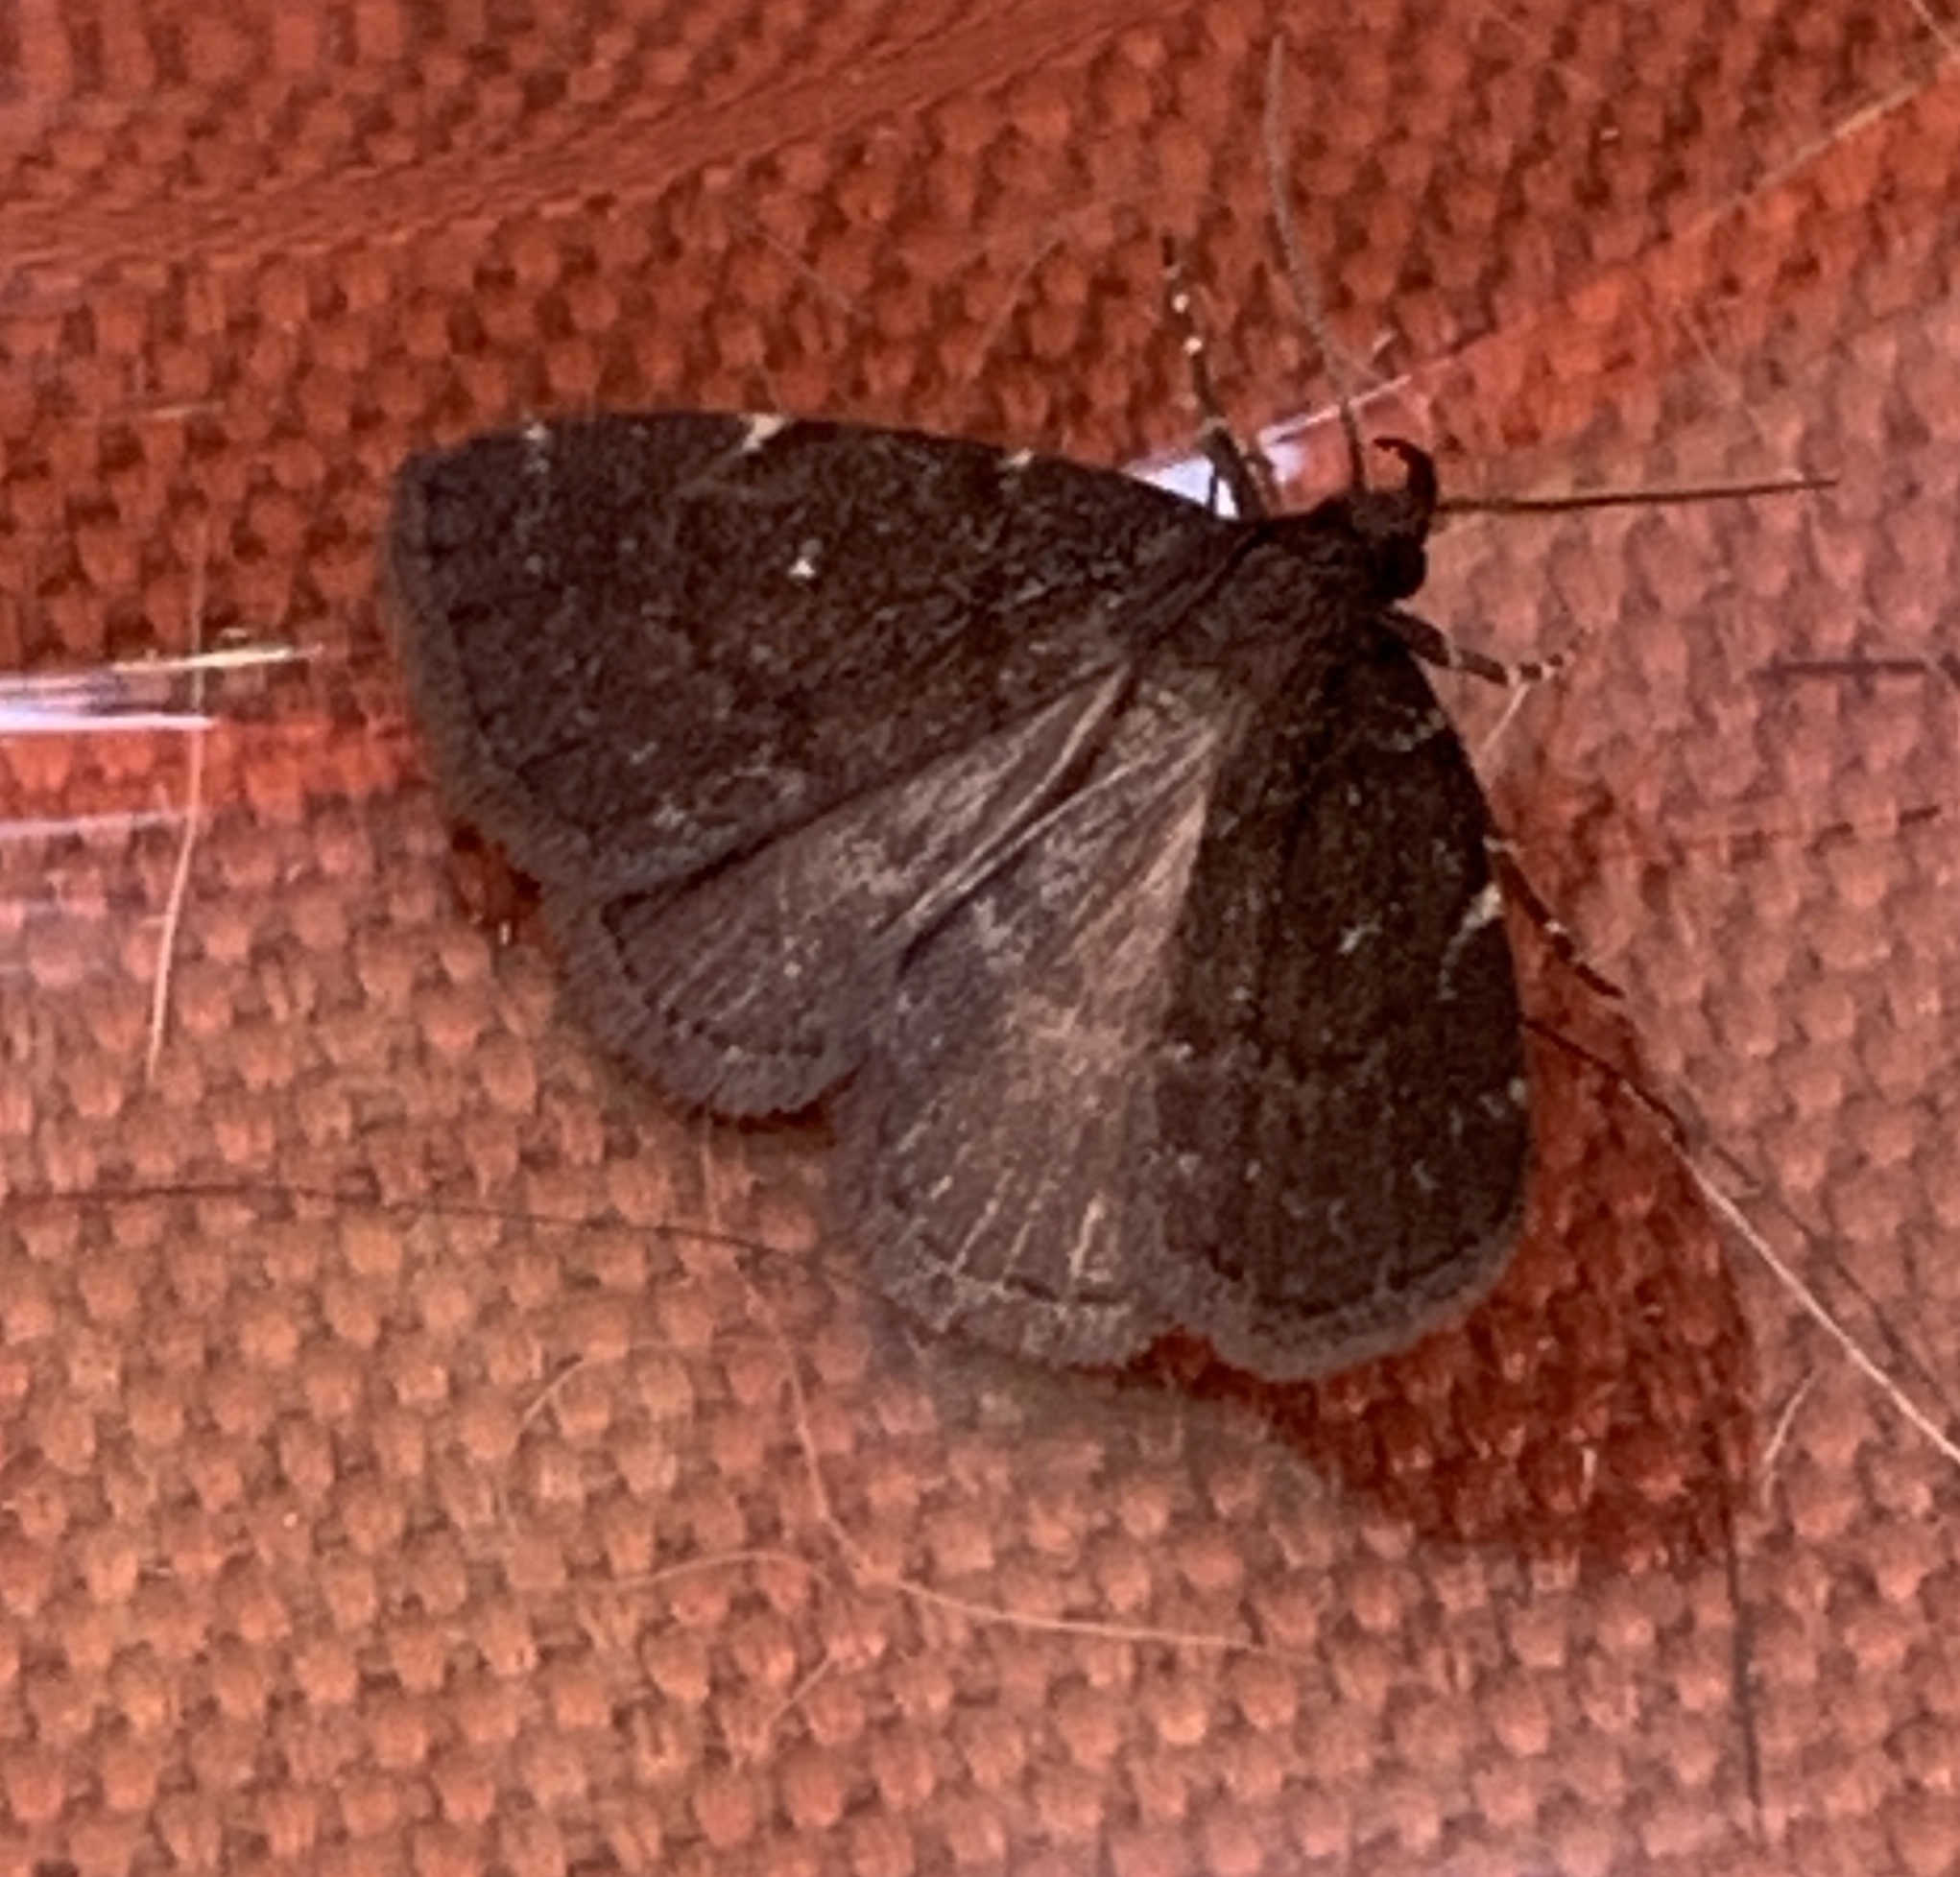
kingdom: Animalia
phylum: Arthropoda
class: Insecta
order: Lepidoptera
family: Erebidae
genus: Idia
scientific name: Idia julia
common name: Julia's idia moth
